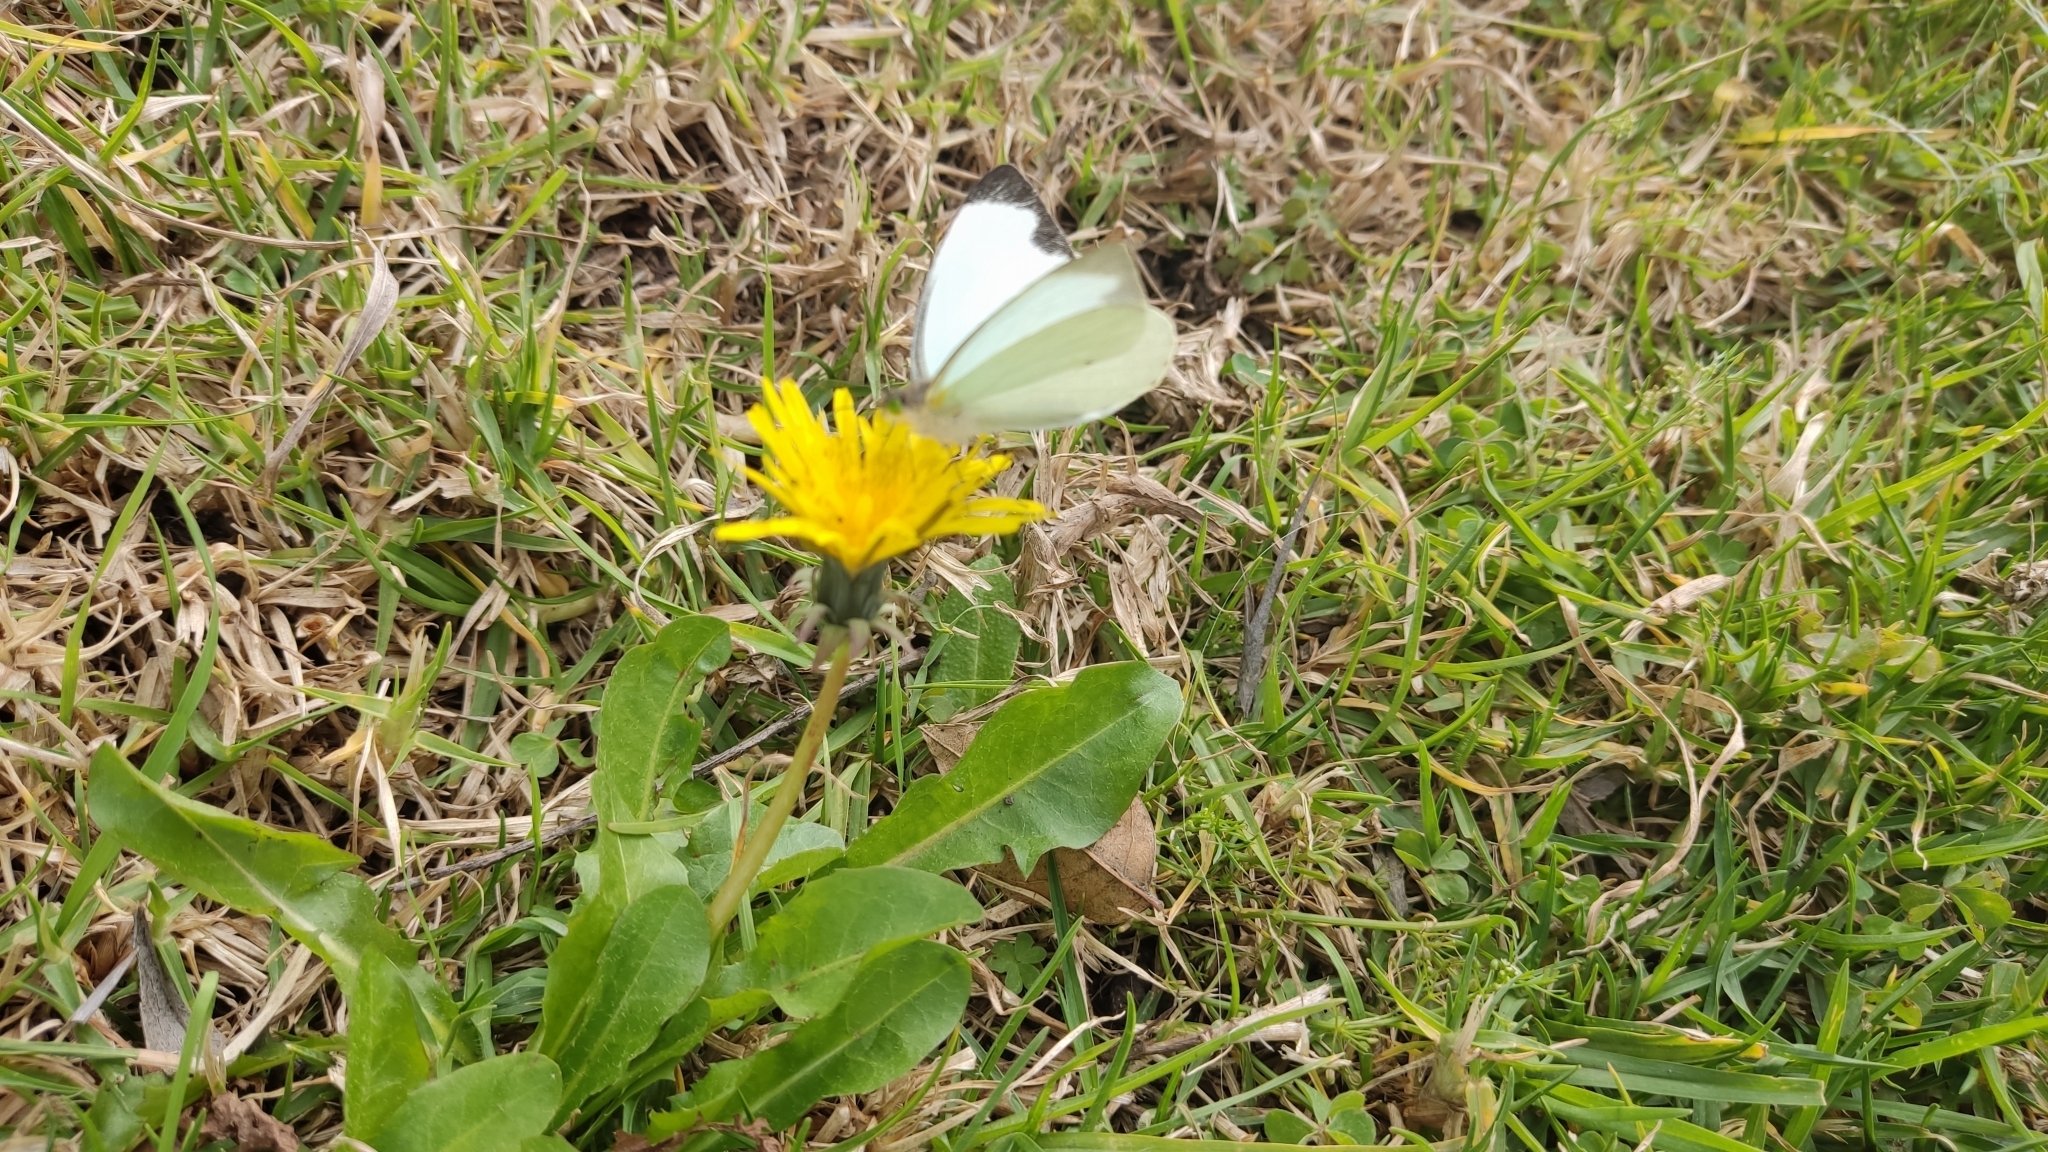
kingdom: Animalia
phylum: Arthropoda
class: Insecta
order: Lepidoptera
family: Pieridae
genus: Leptophobia
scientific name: Leptophobia aripa
